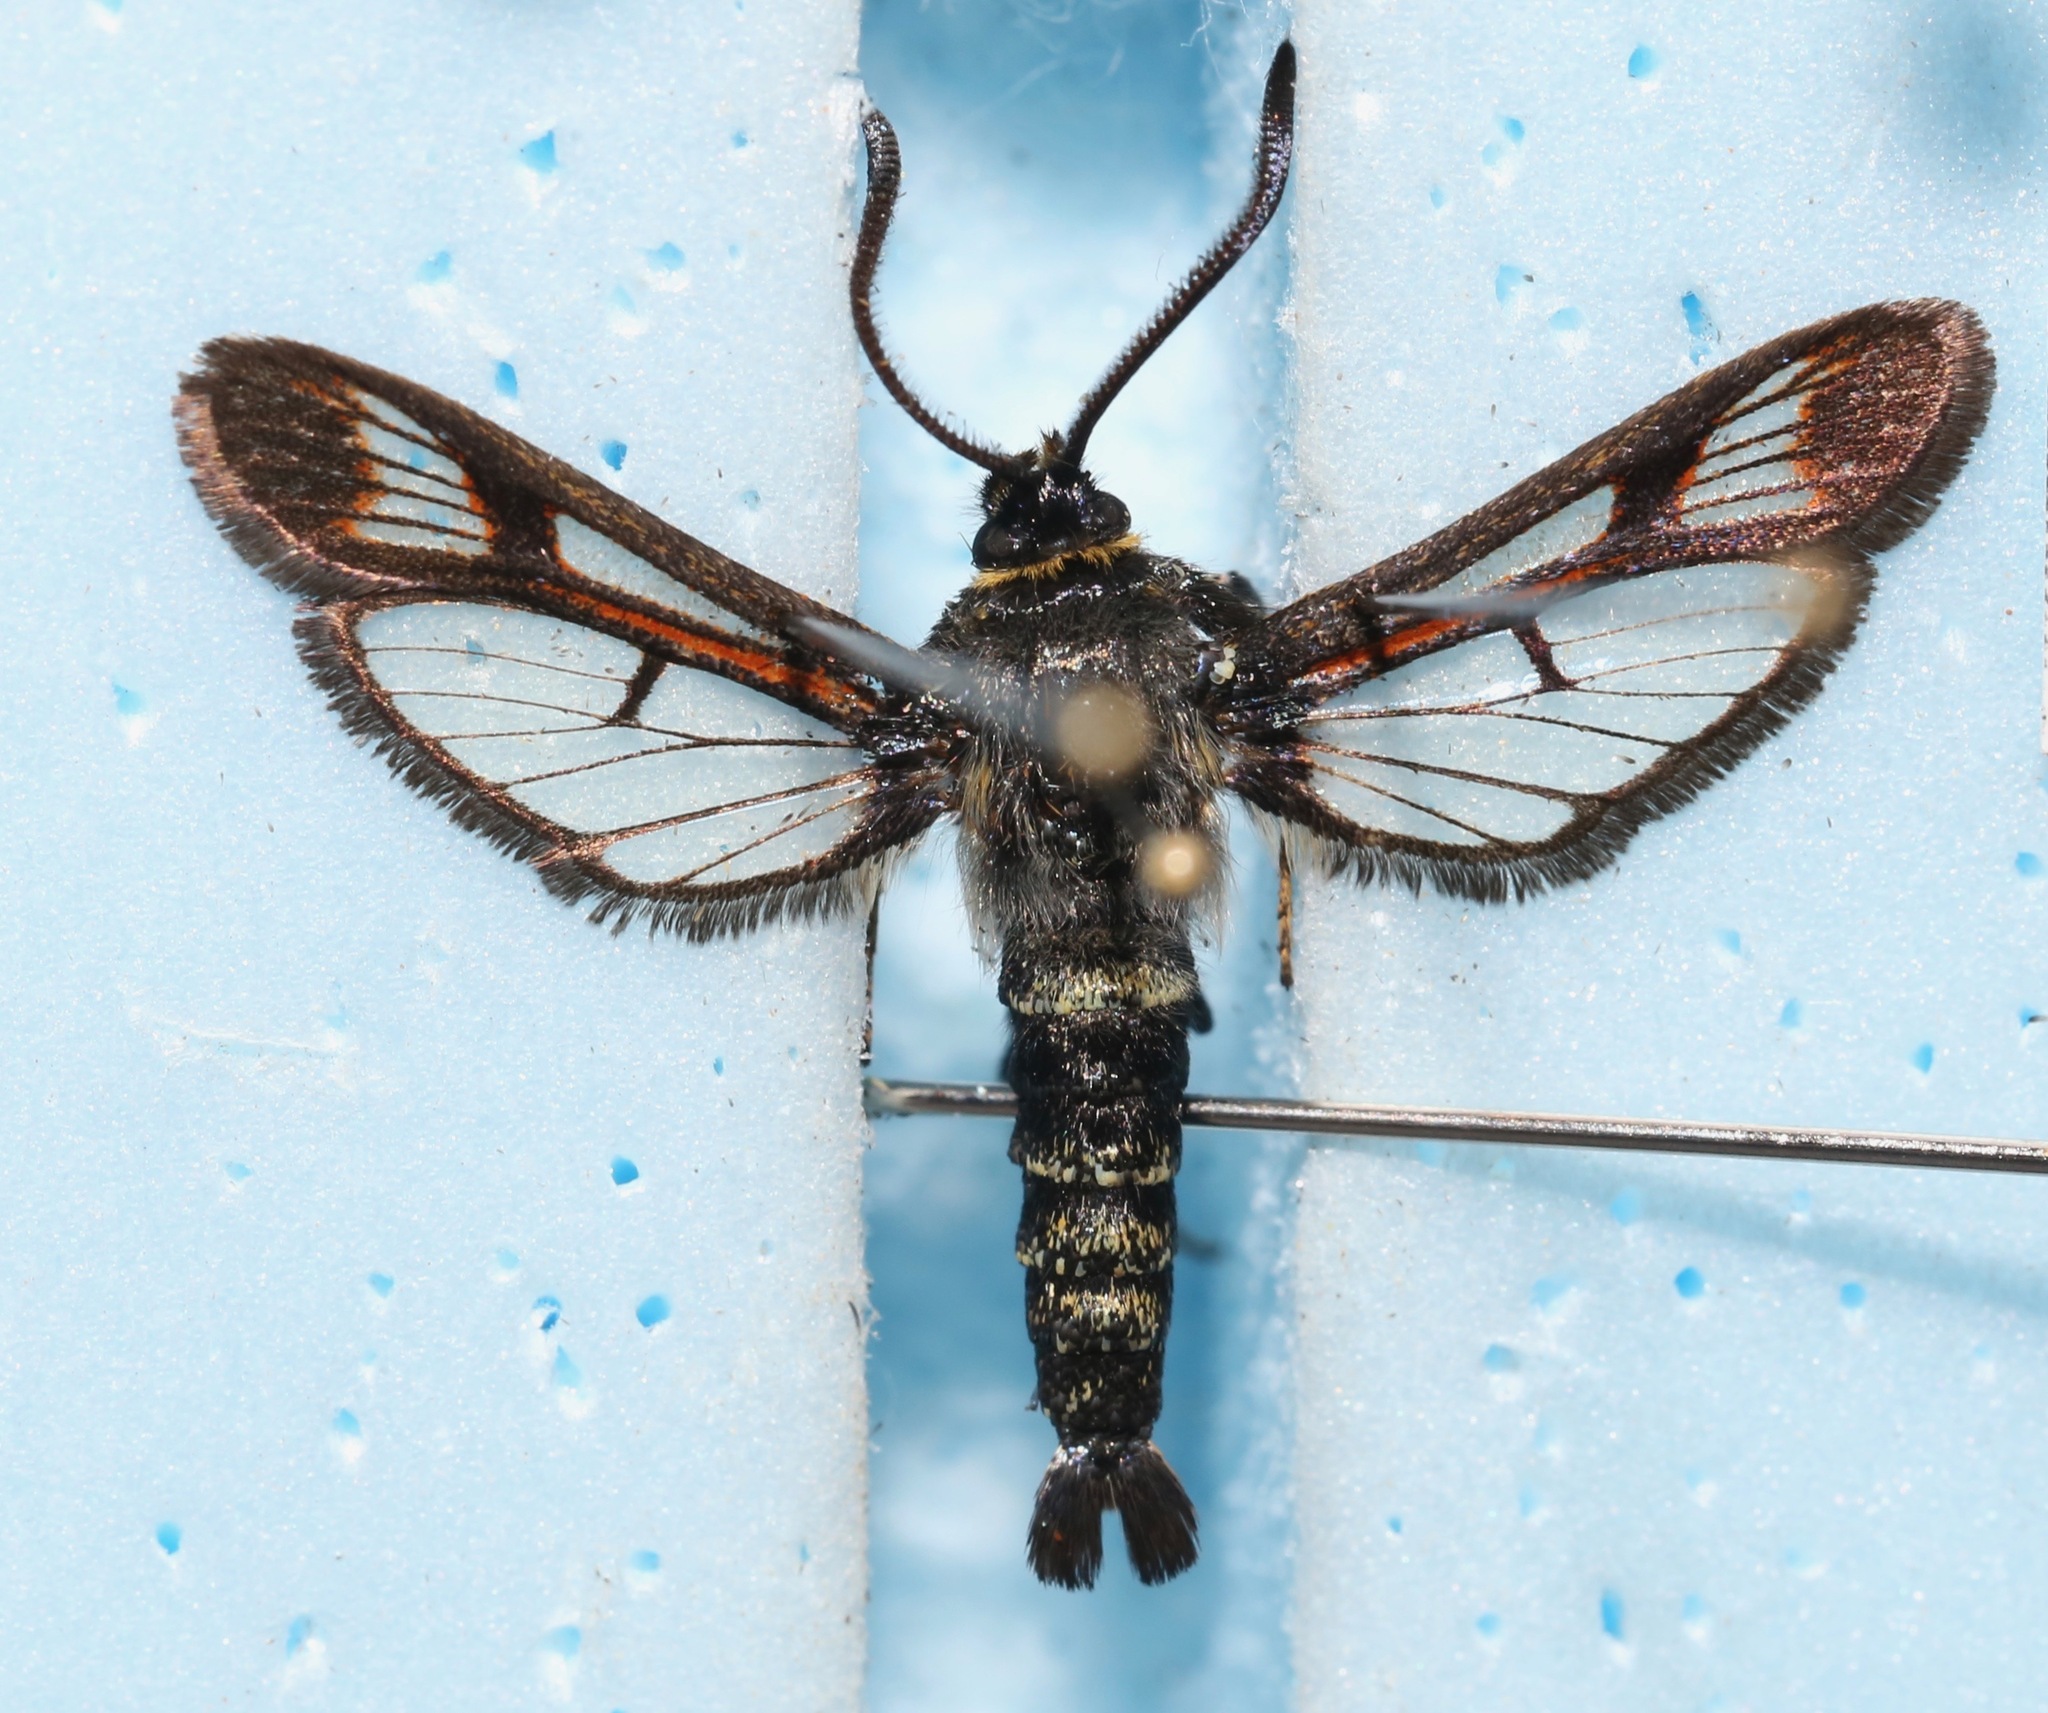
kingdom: Animalia
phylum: Arthropoda
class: Insecta
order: Lepidoptera
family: Sesiidae
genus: Albuna
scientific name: Albuna pyramidalis
